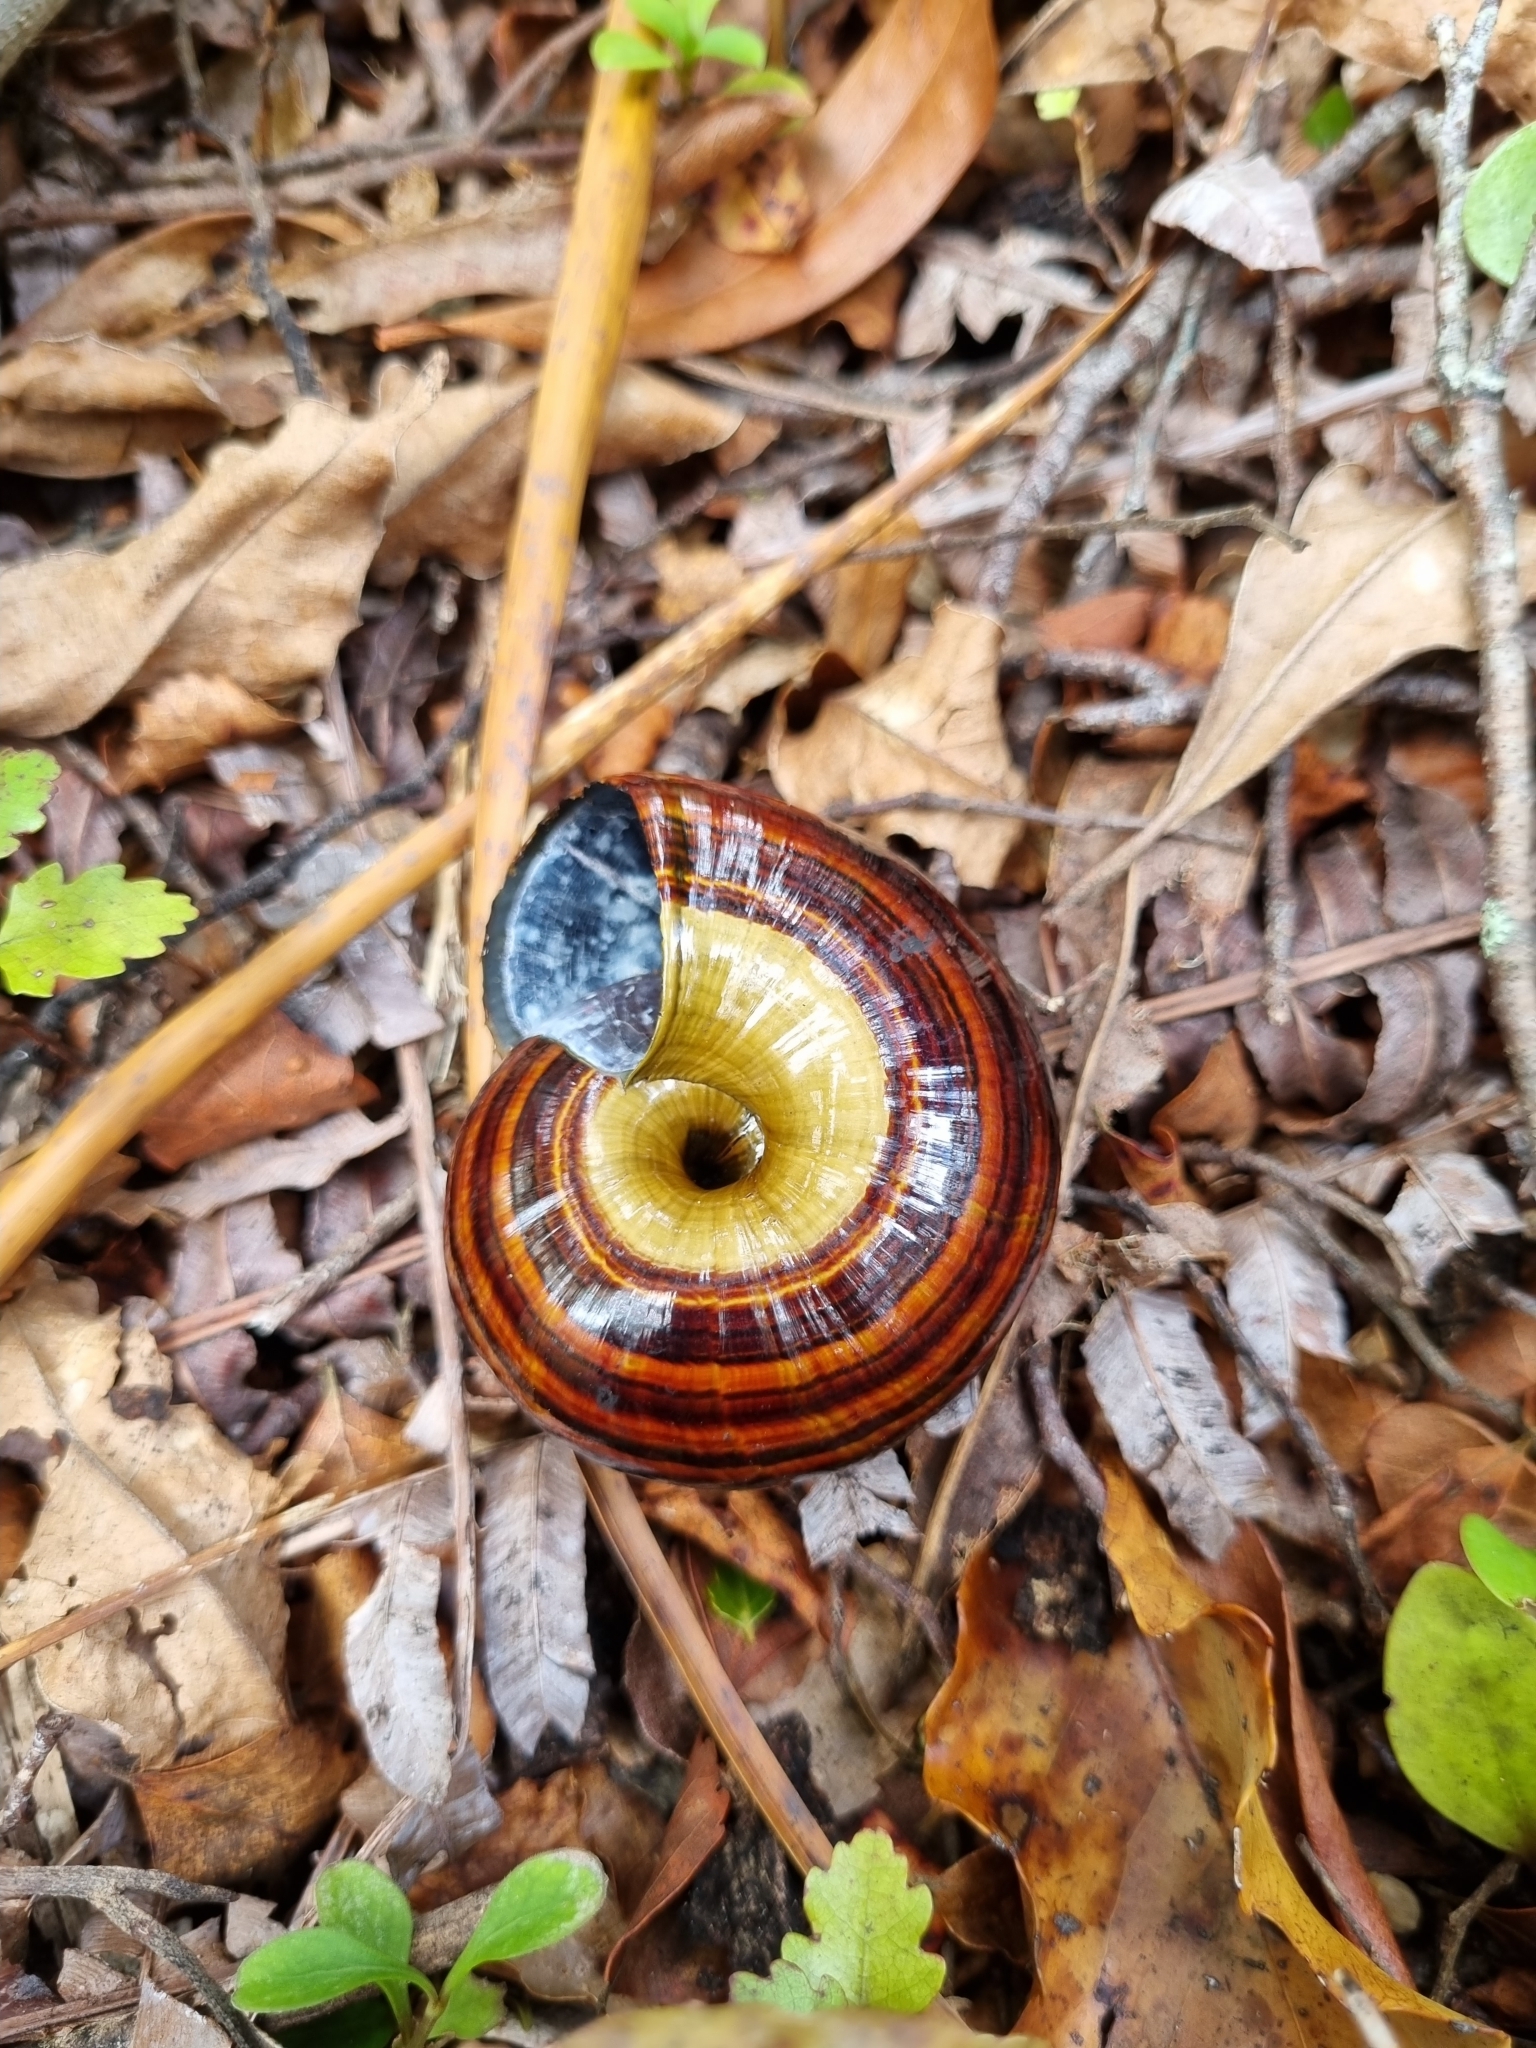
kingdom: Animalia
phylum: Mollusca
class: Gastropoda
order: Stylommatophora
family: Rhytididae
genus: Powelliphanta
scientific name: Powelliphanta hochstetteri
